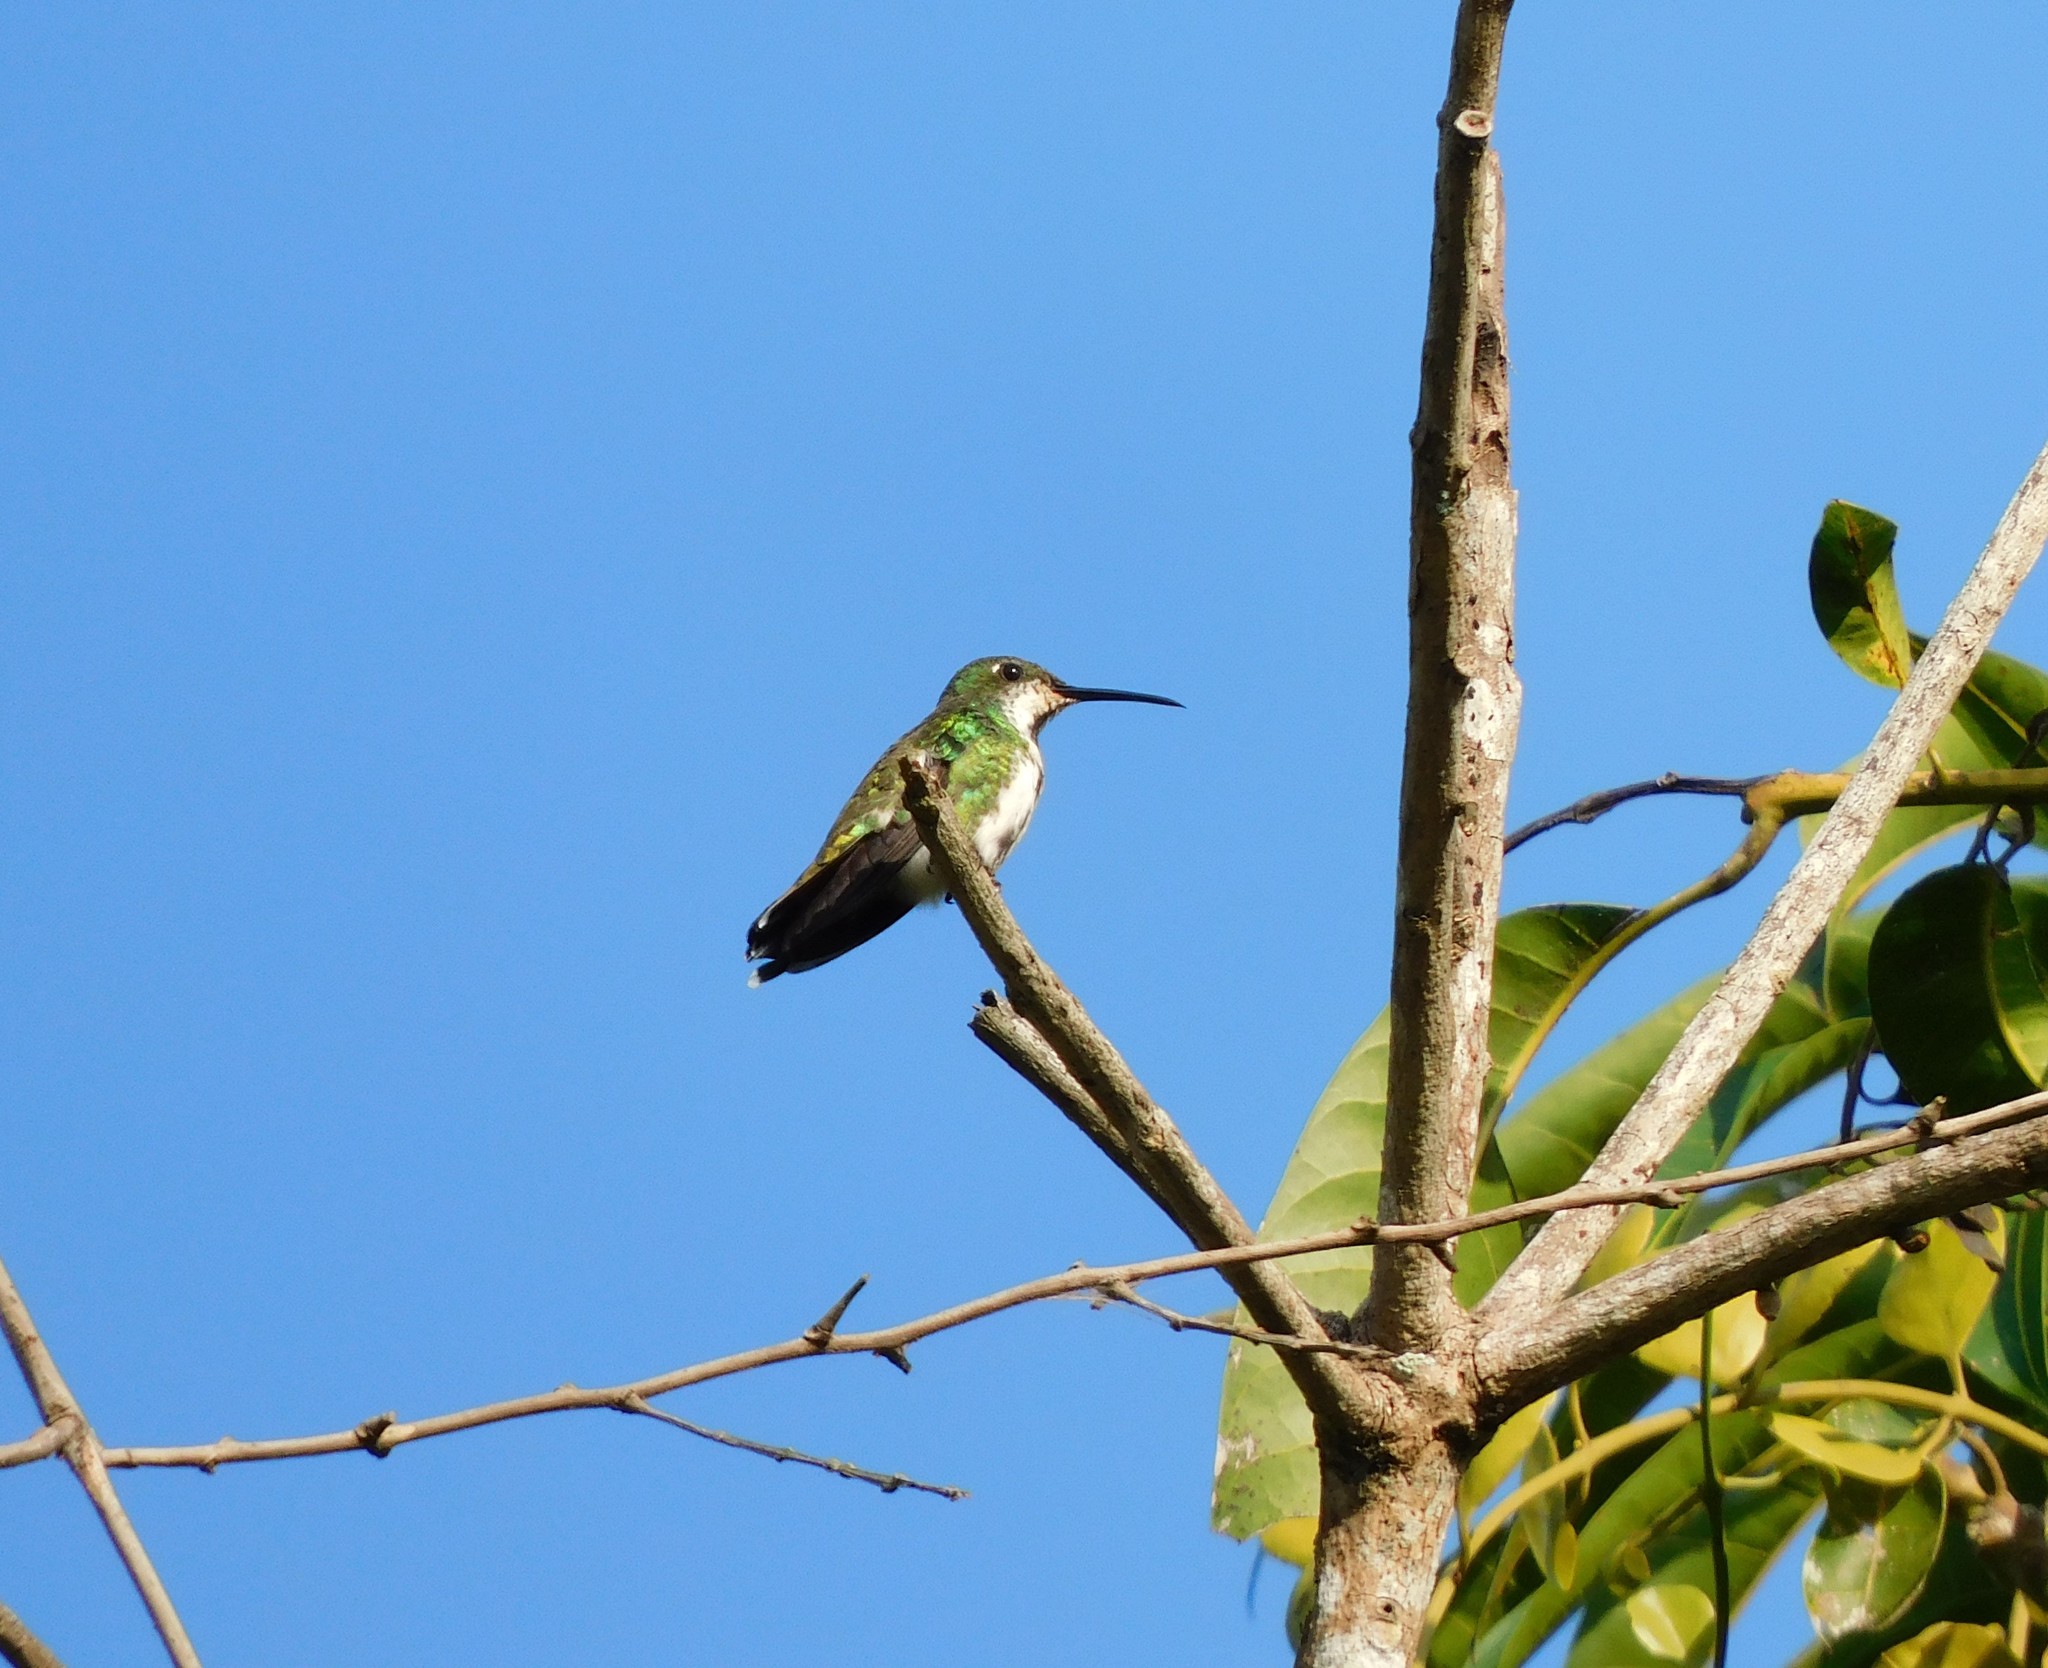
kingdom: Animalia
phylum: Chordata
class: Aves
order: Apodiformes
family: Trochilidae
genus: Anthracothorax
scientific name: Anthracothorax nigricollis
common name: Black-throated mango
